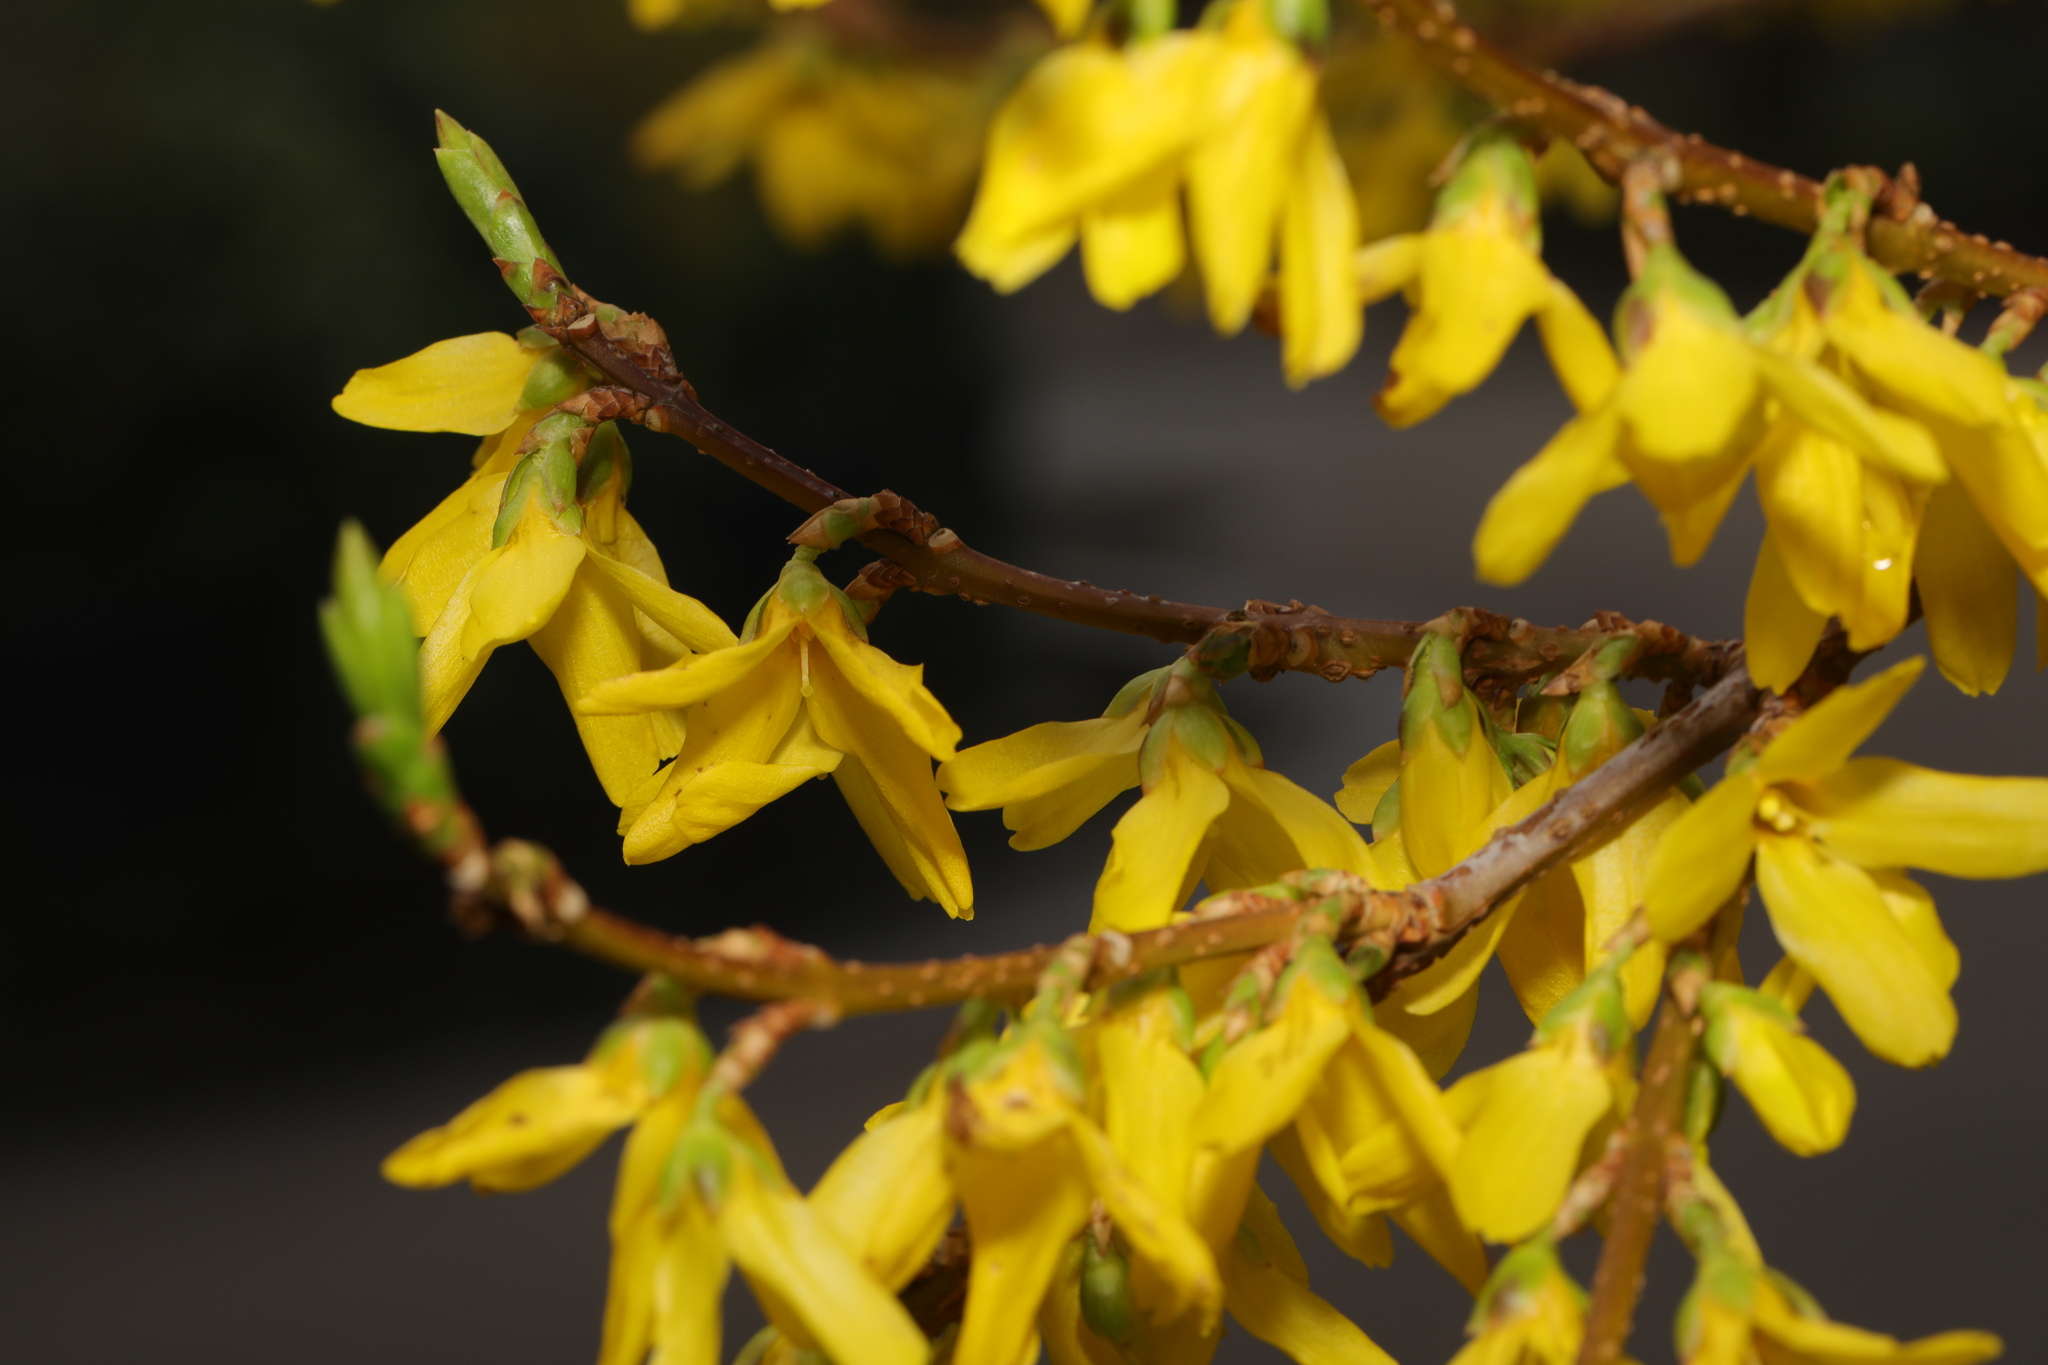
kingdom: Plantae
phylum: Tracheophyta
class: Magnoliopsida
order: Lamiales
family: Oleaceae
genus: Forsythia
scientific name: Forsythia intermedia
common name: Forsythia
